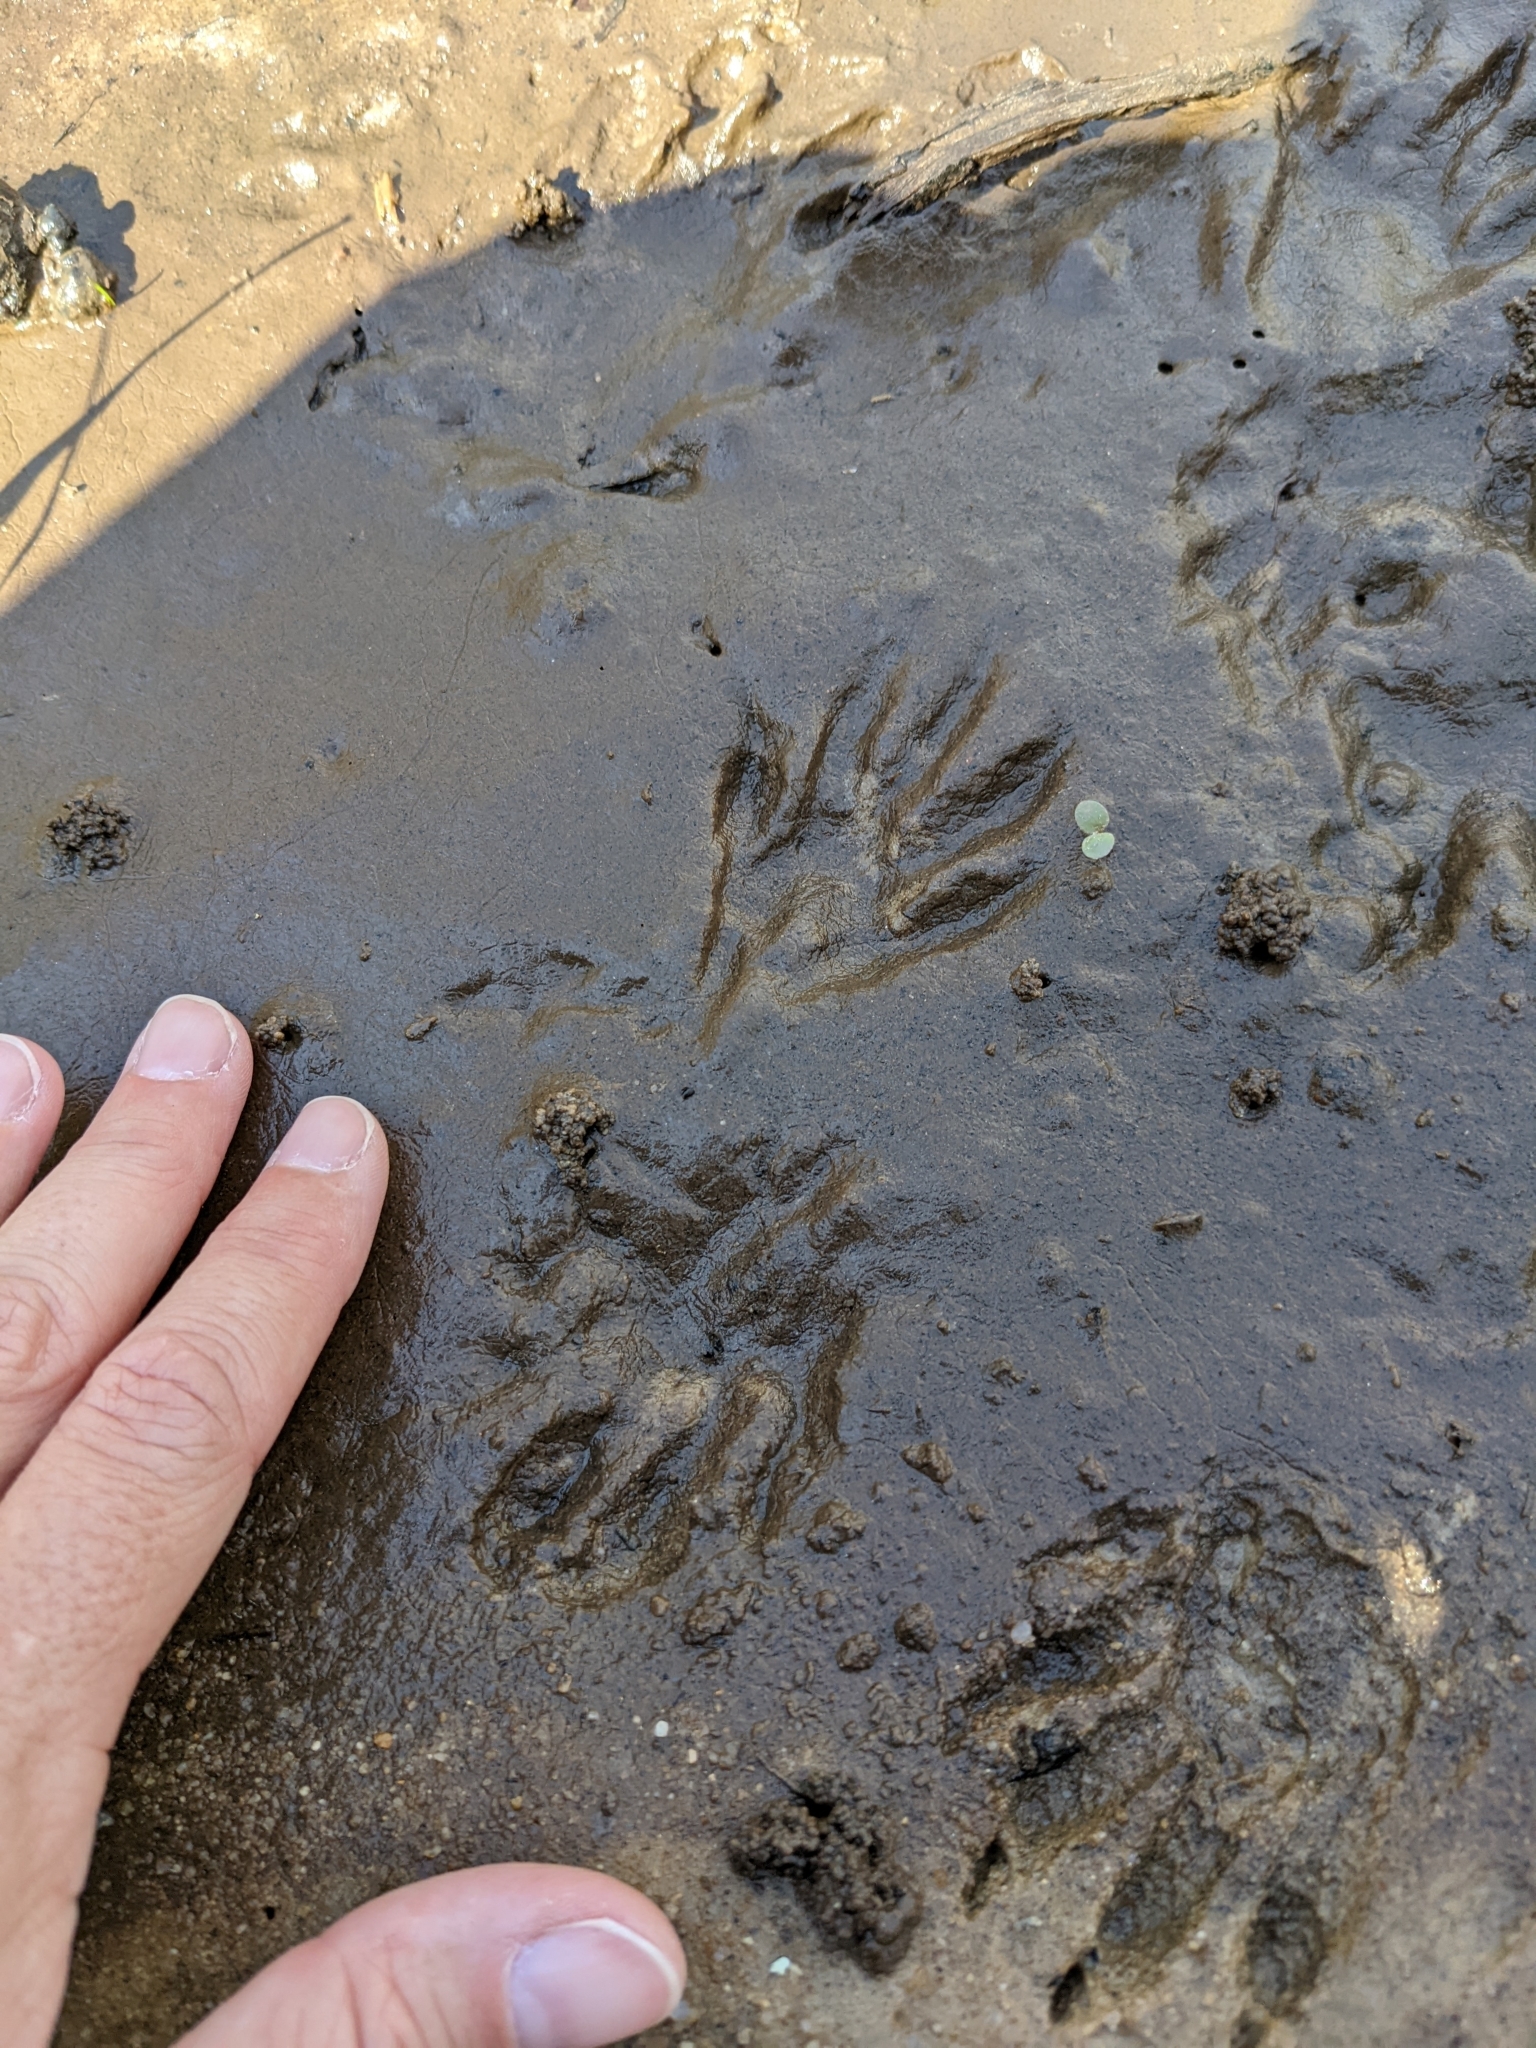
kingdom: Animalia
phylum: Chordata
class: Mammalia
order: Carnivora
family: Procyonidae
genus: Procyon
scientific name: Procyon lotor
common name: Raccoon
